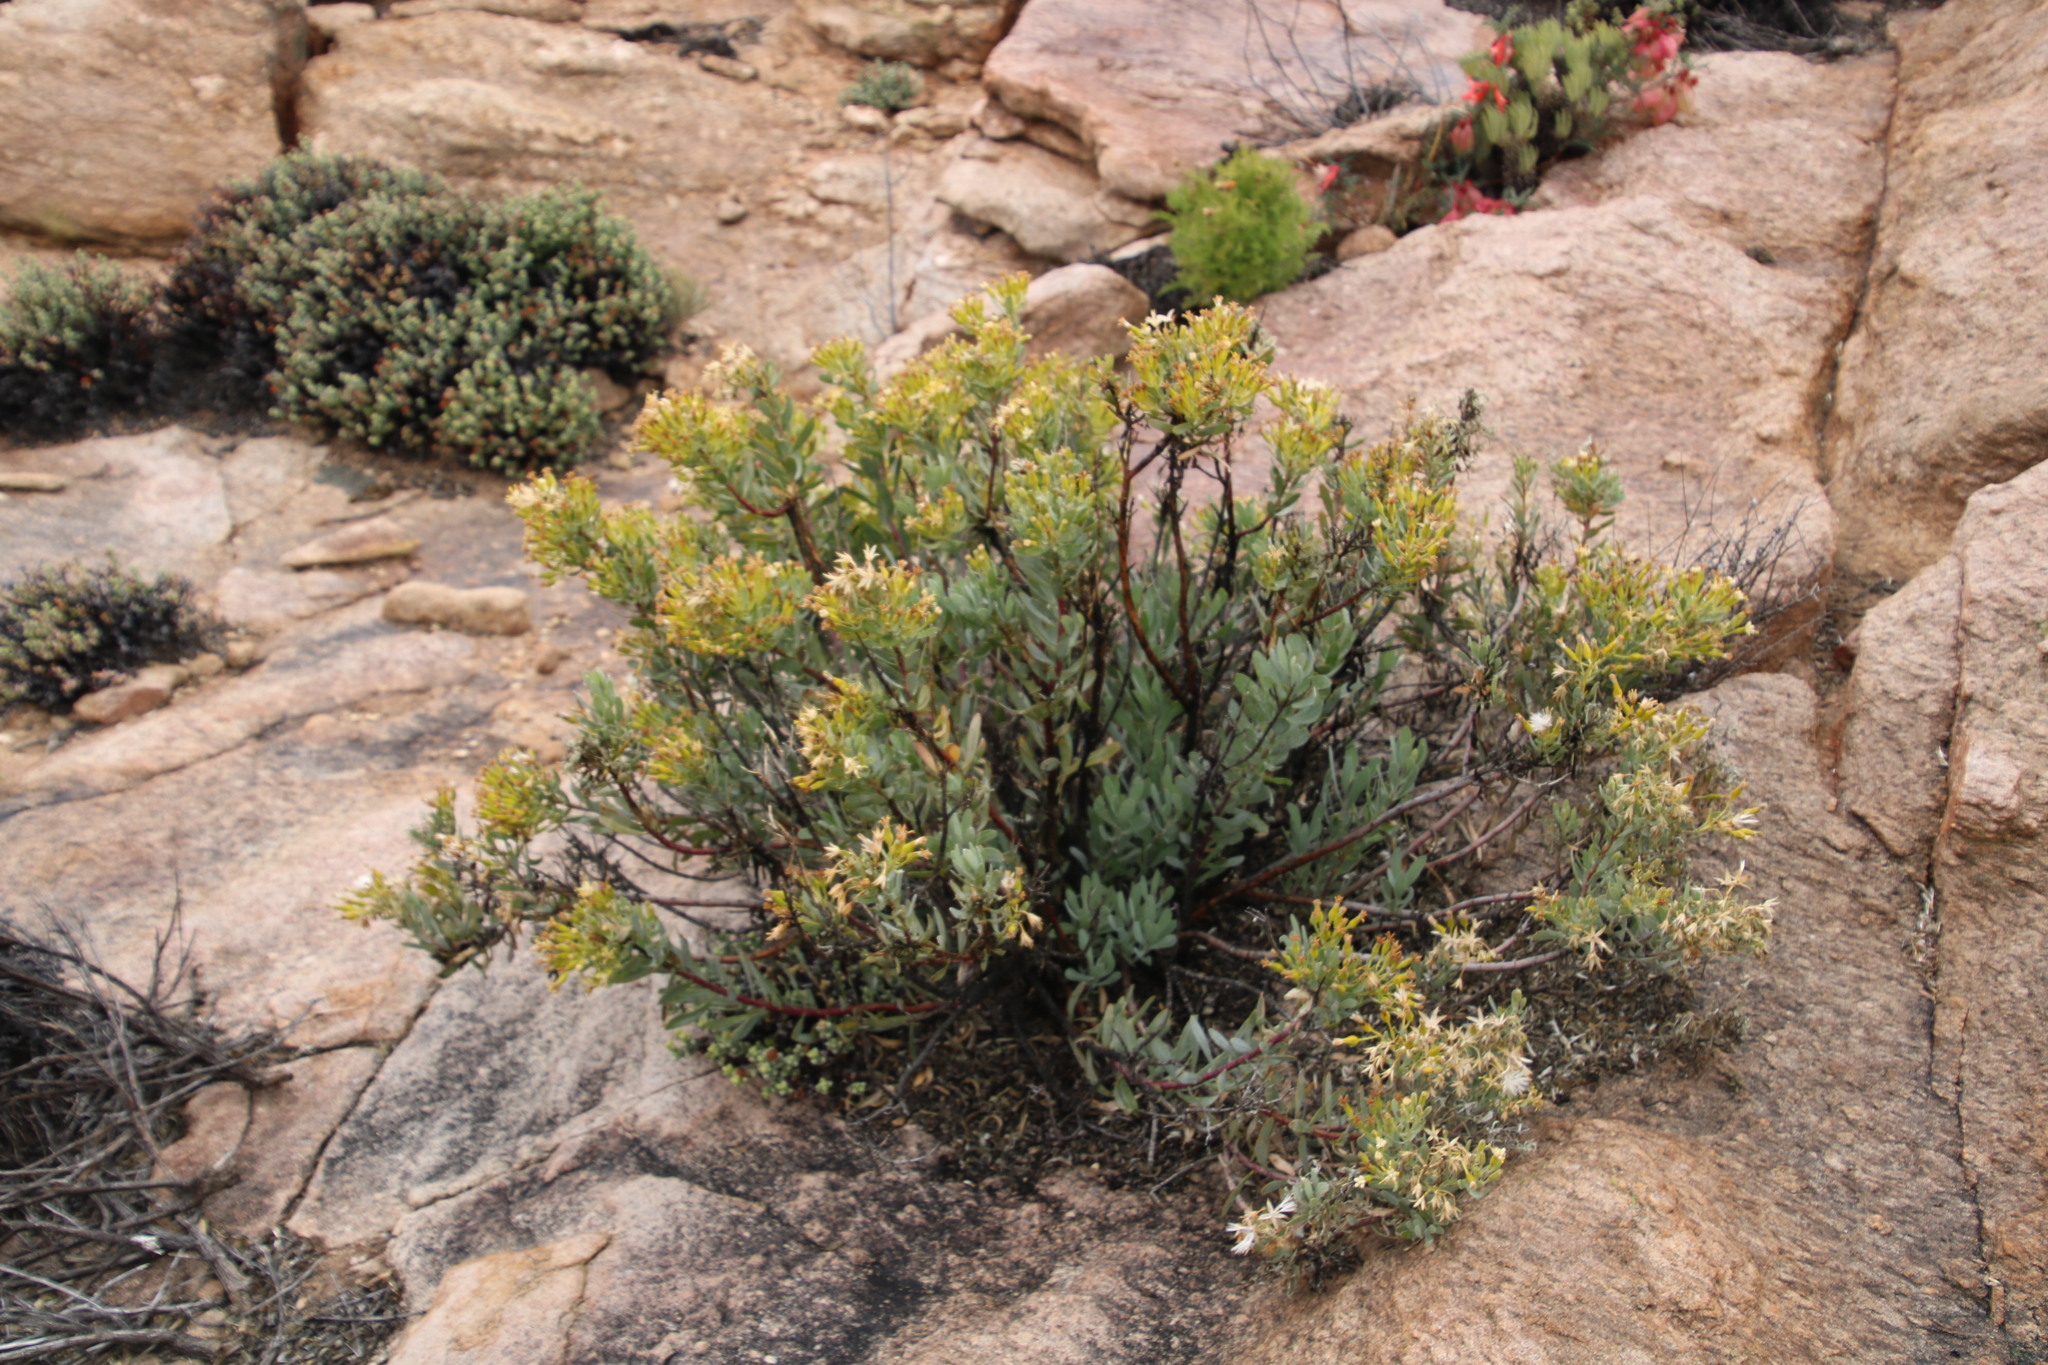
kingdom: Plantae
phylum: Tracheophyta
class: Magnoliopsida
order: Asterales
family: Asteraceae
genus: Lopholaena
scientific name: Lopholaena cneorifolia
